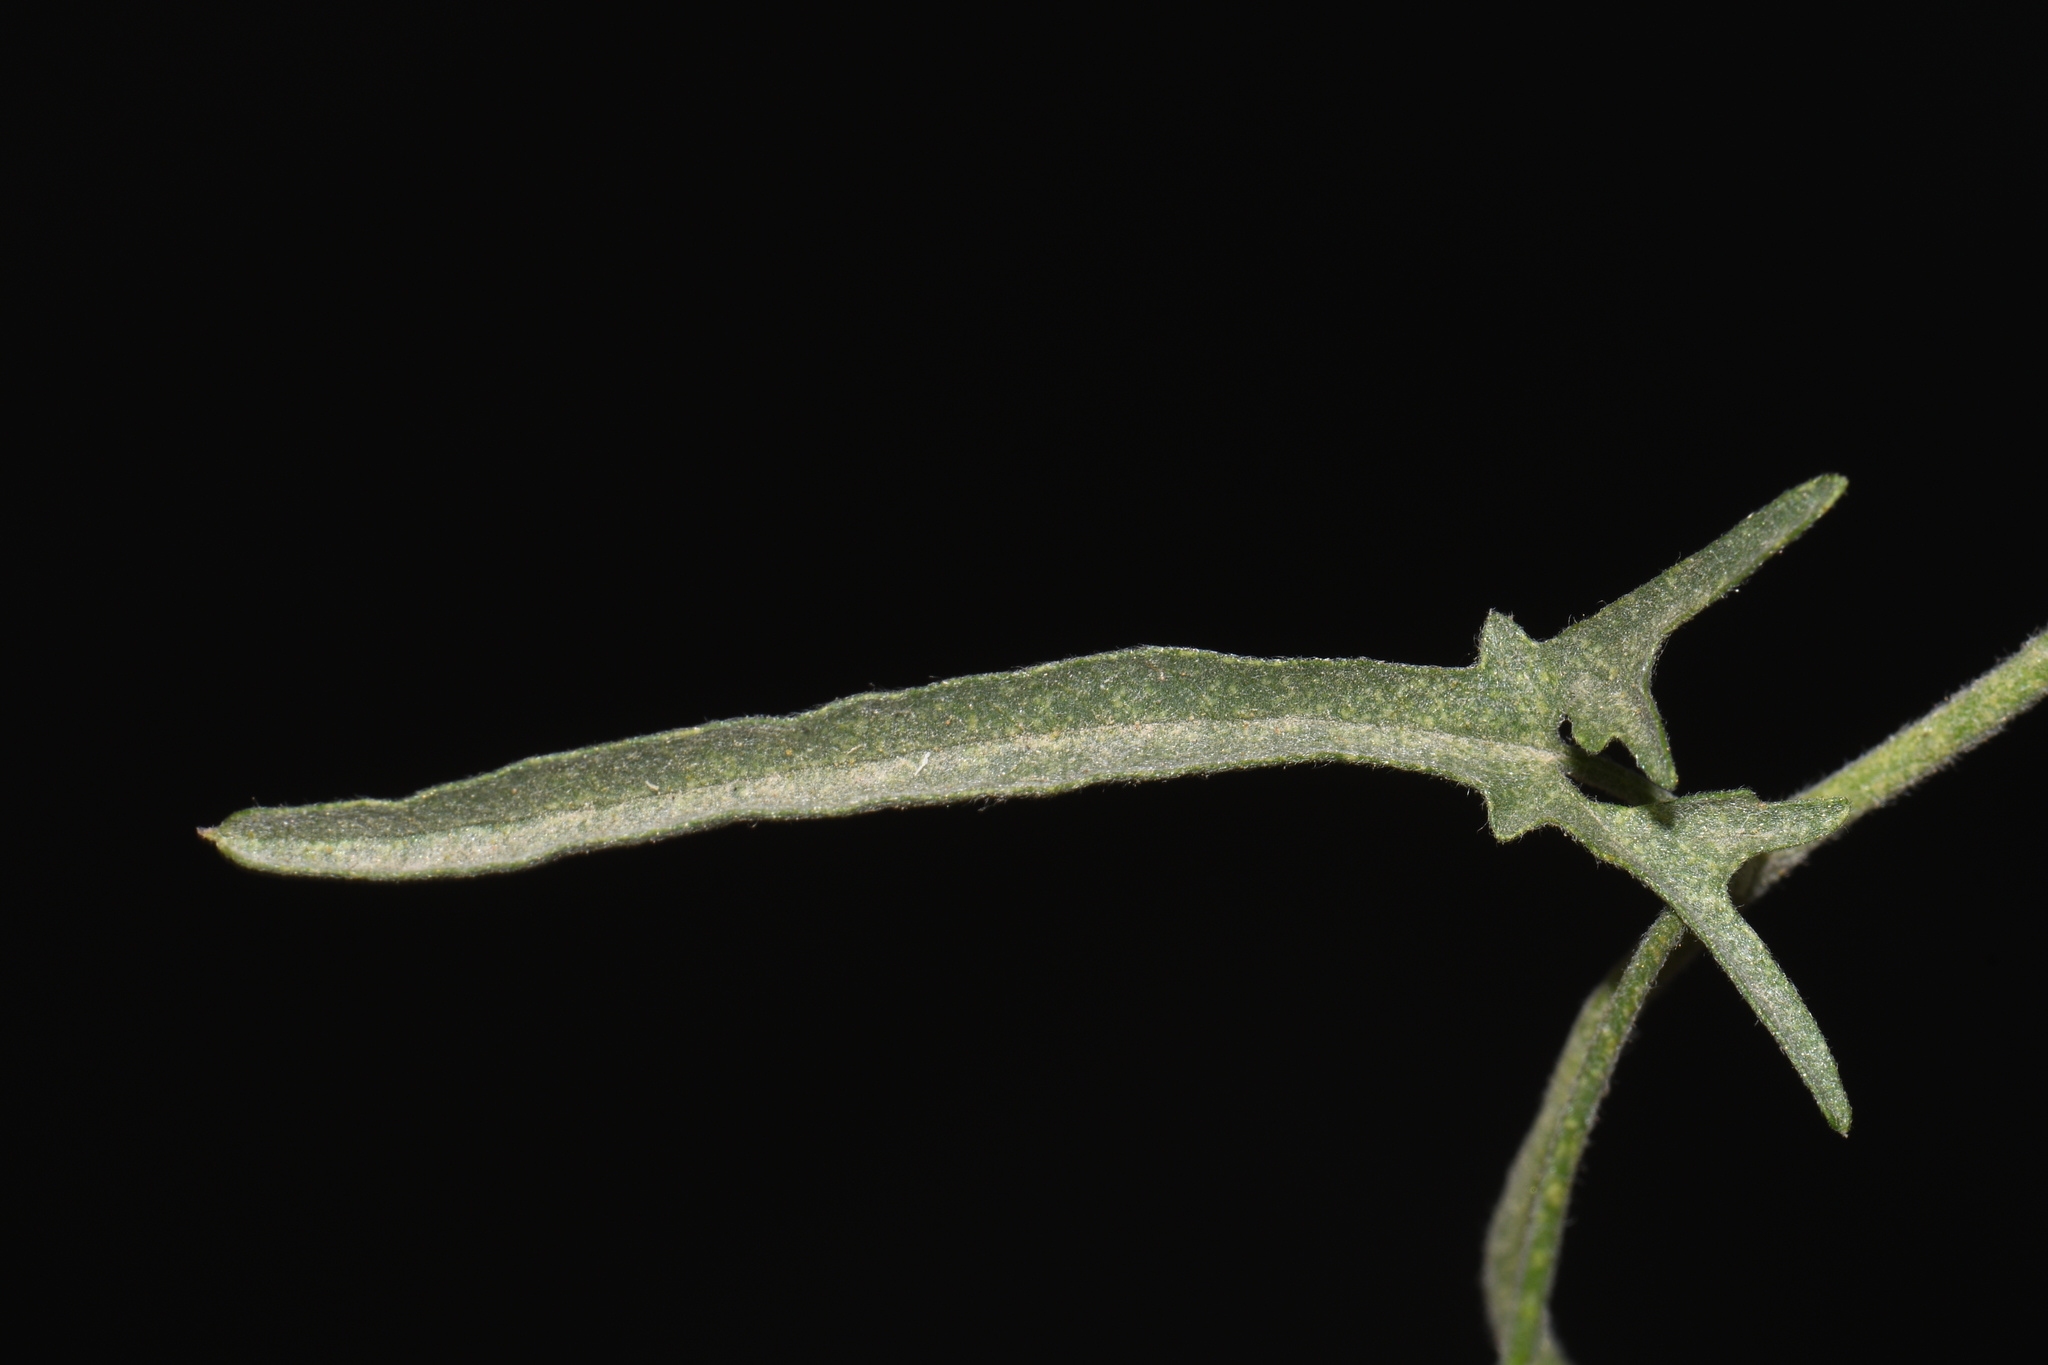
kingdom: Plantae
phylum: Tracheophyta
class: Magnoliopsida
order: Solanales
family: Convolvulaceae
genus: Convolvulus
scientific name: Convolvulus equitans
